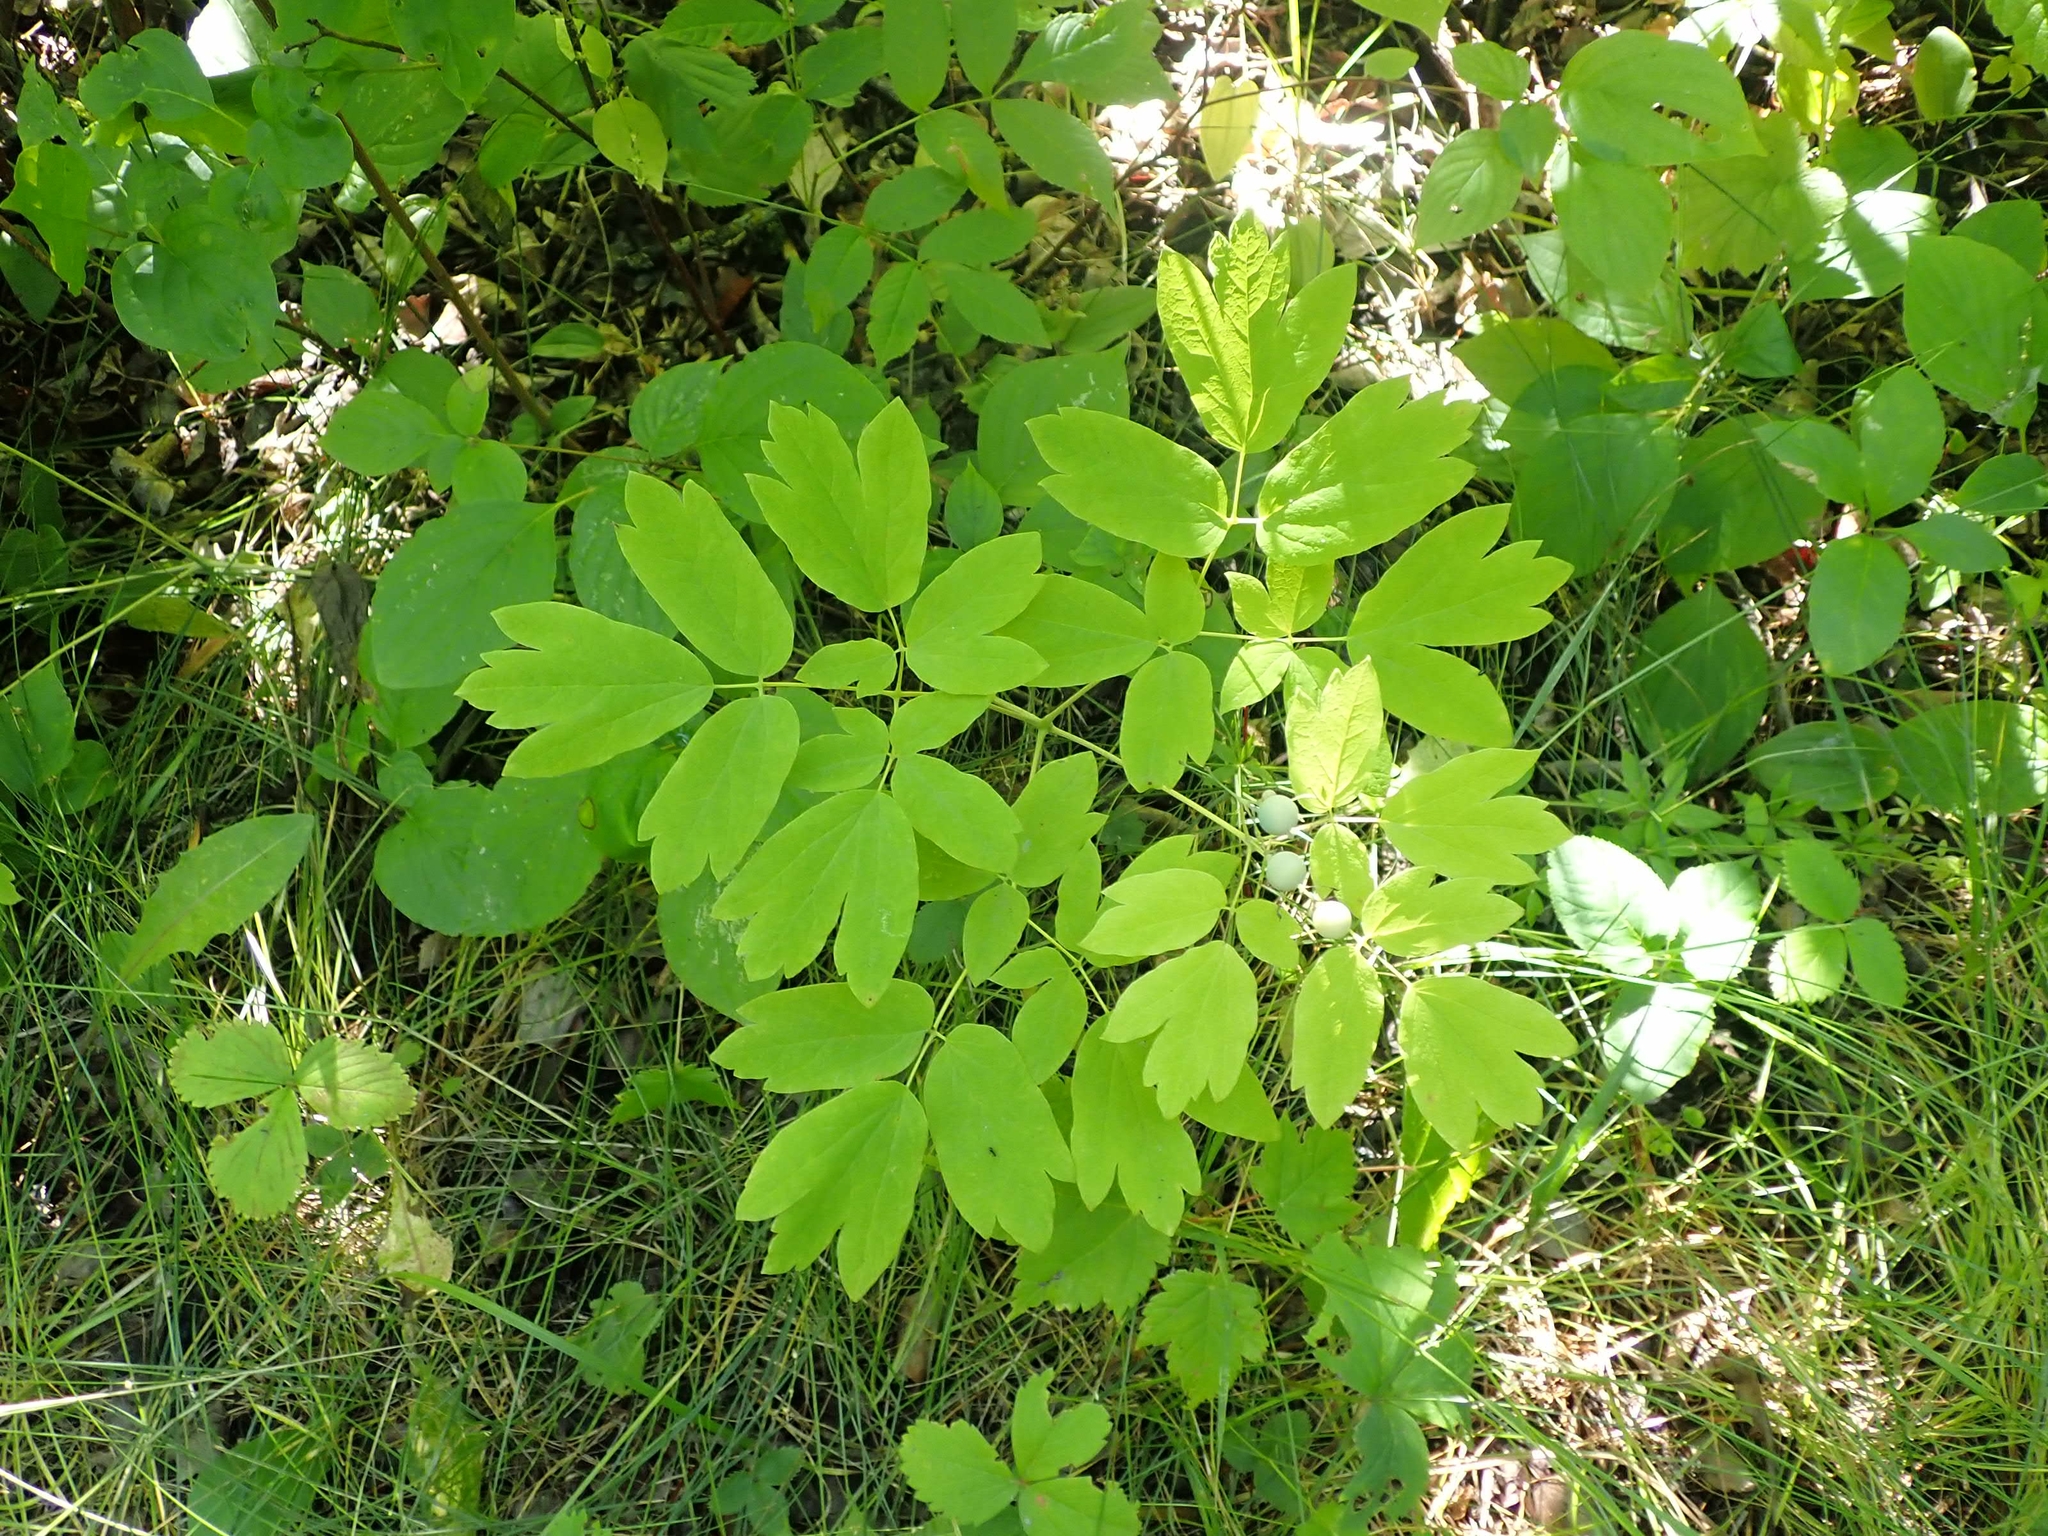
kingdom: Plantae
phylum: Tracheophyta
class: Magnoliopsida
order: Ranunculales
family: Berberidaceae
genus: Caulophyllum
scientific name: Caulophyllum thalictroides
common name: Blue cohosh
